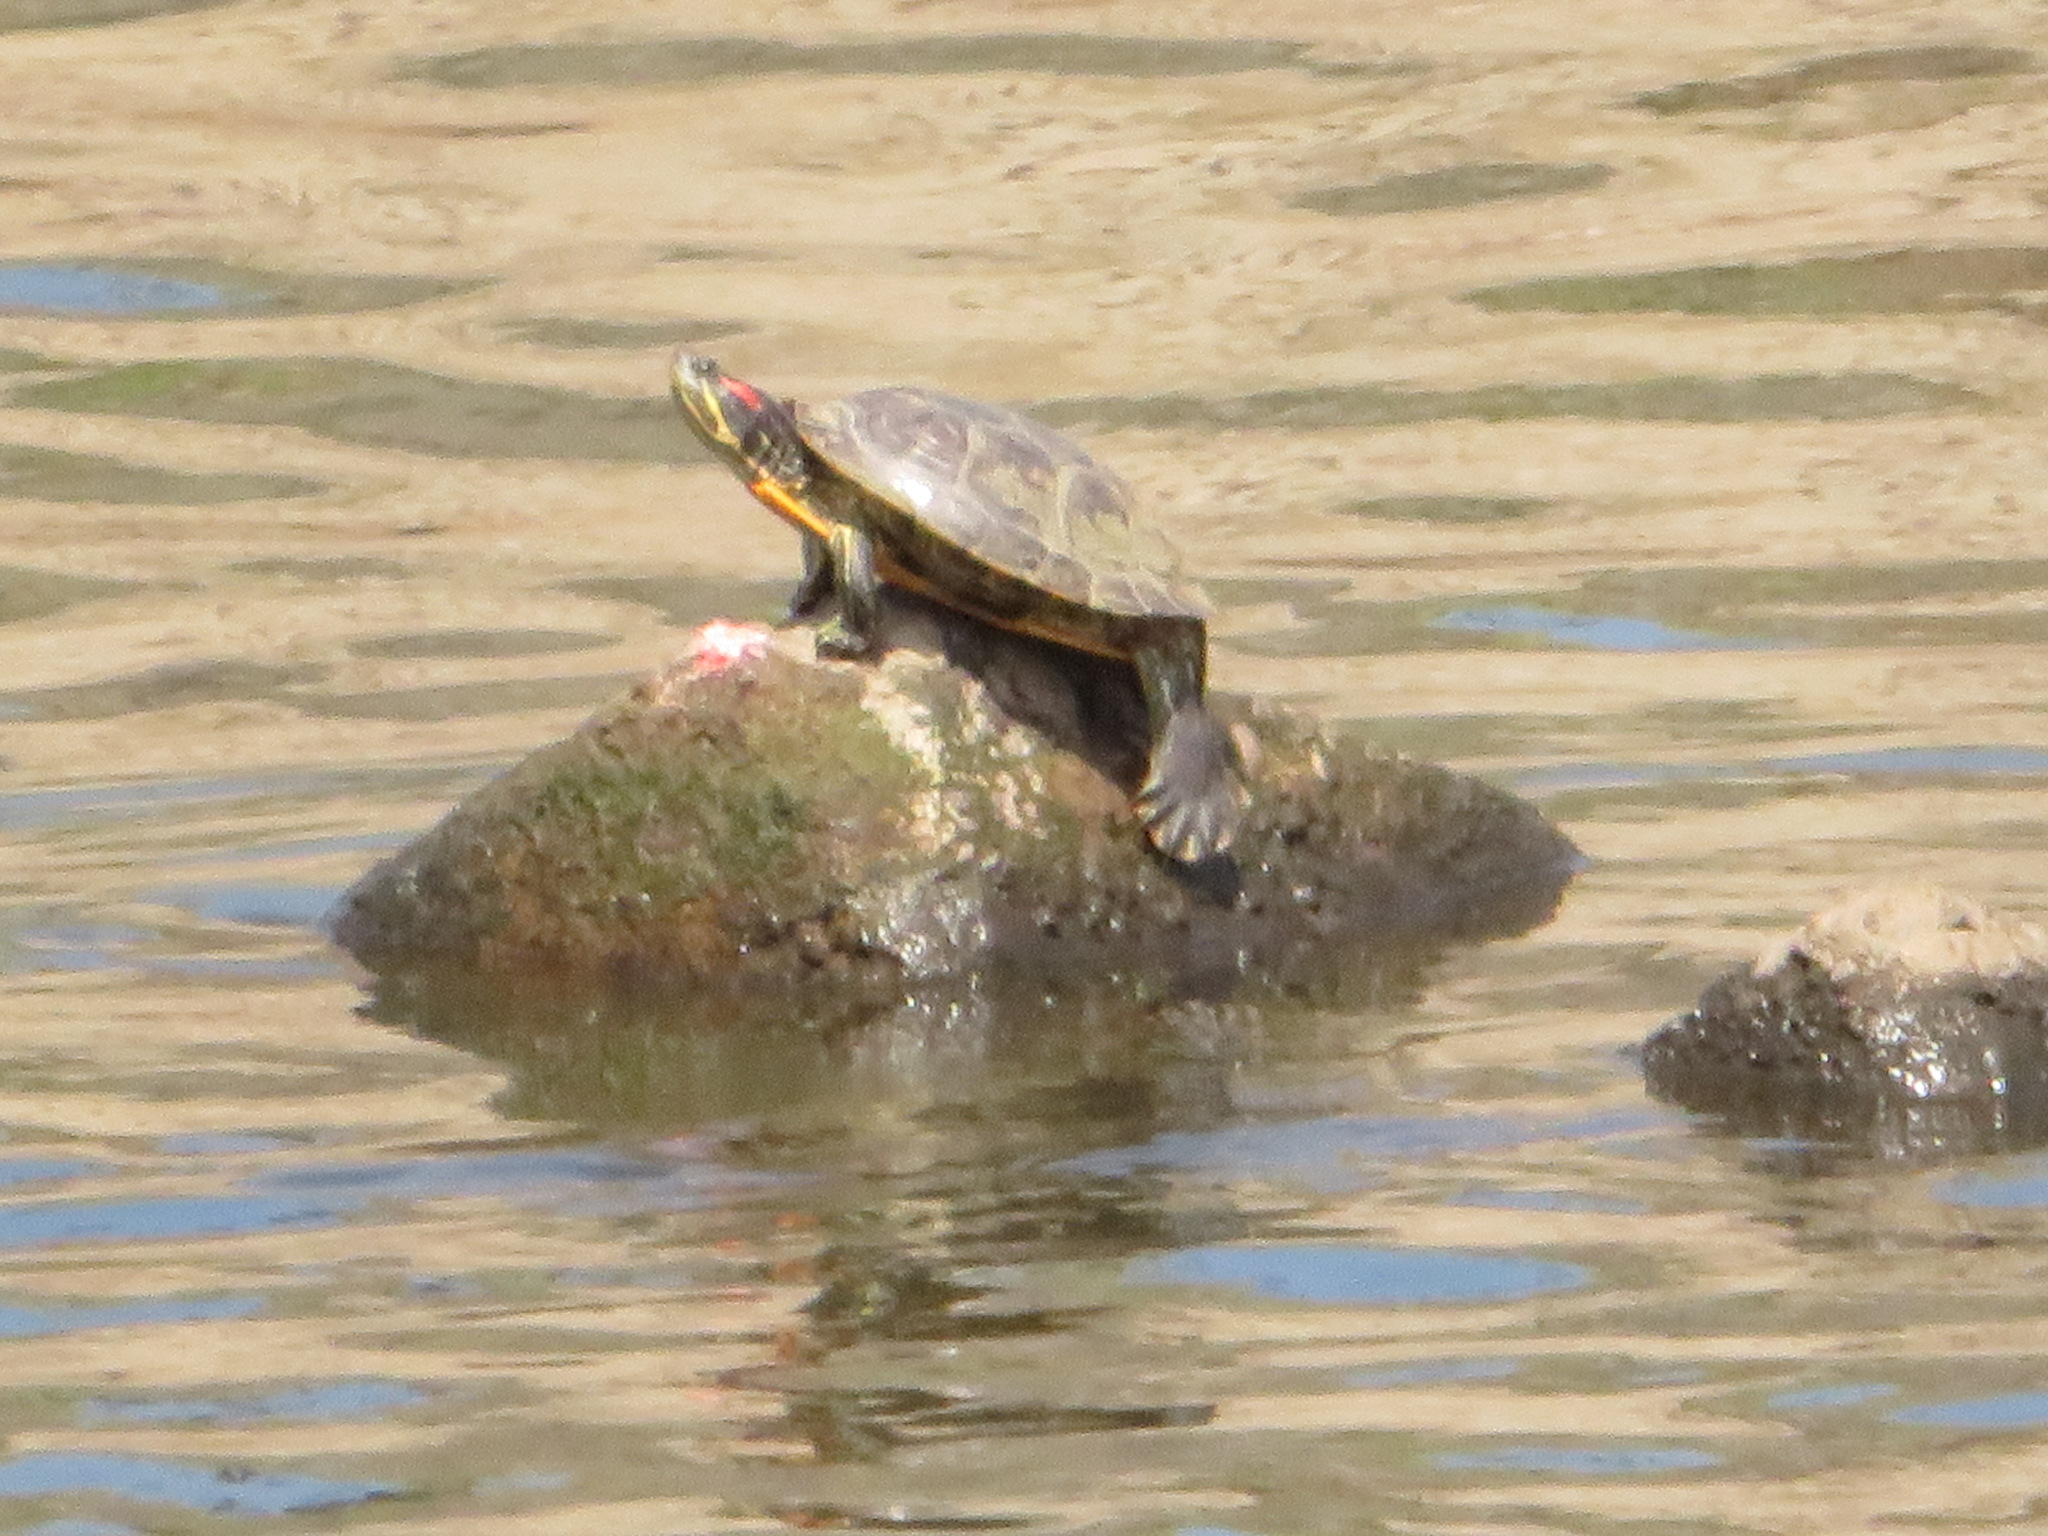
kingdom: Animalia
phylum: Chordata
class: Testudines
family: Emydidae
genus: Trachemys
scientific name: Trachemys scripta
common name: Slider
